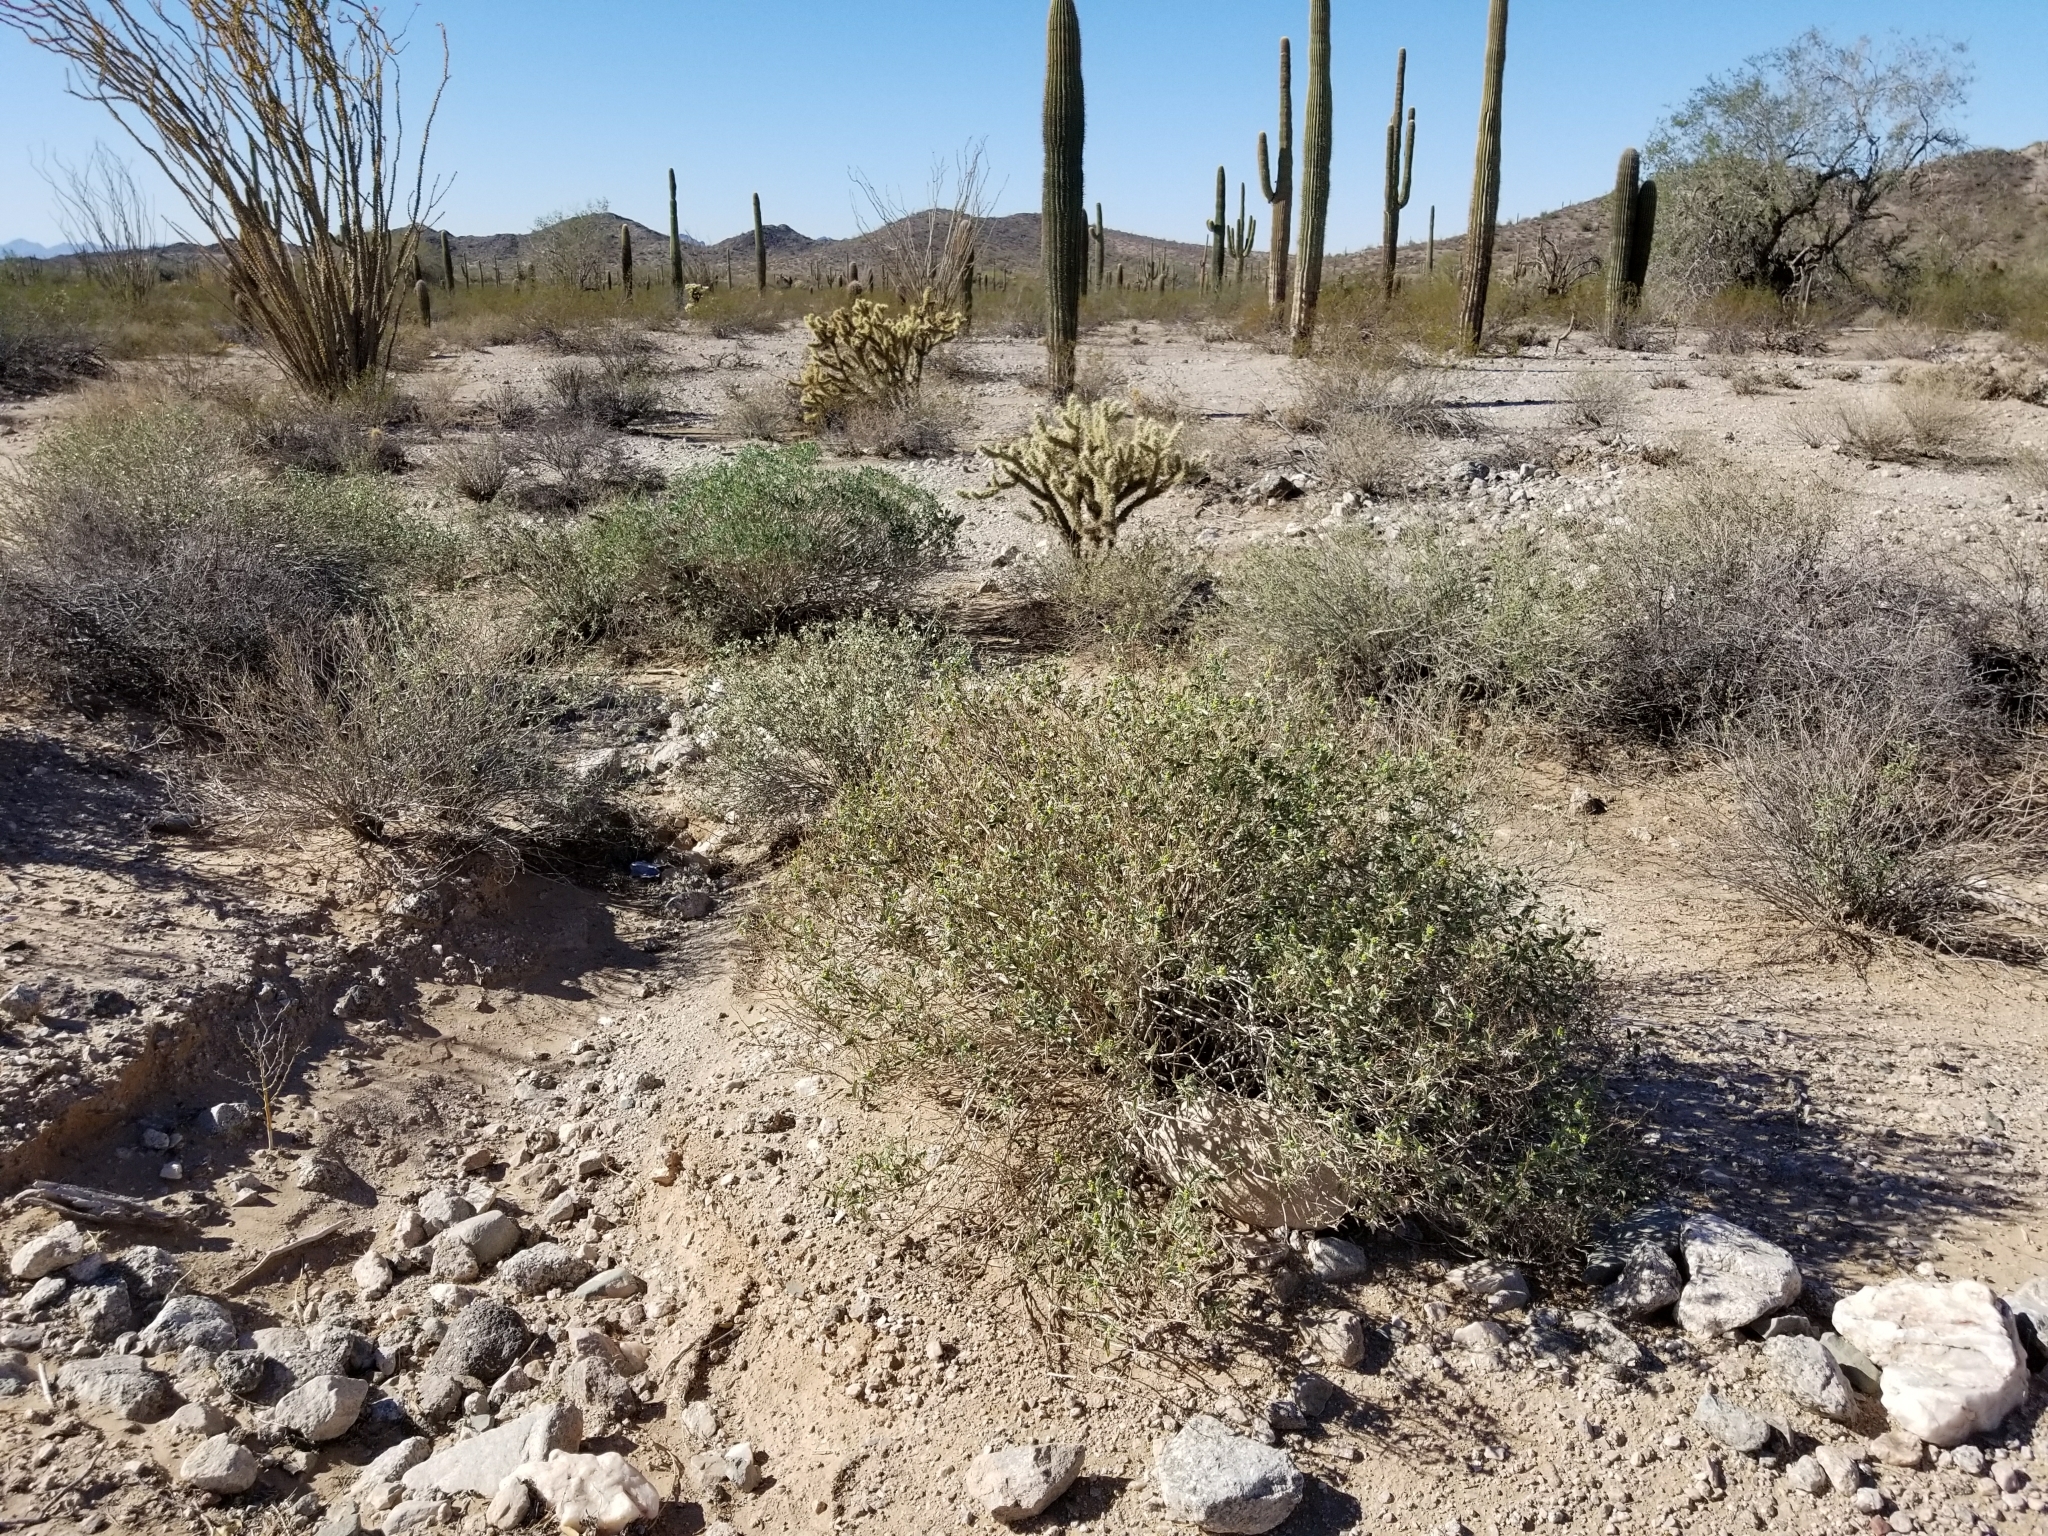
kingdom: Plantae
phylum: Tracheophyta
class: Magnoliopsida
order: Asterales
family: Asteraceae
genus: Ambrosia
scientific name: Ambrosia deltoidea
